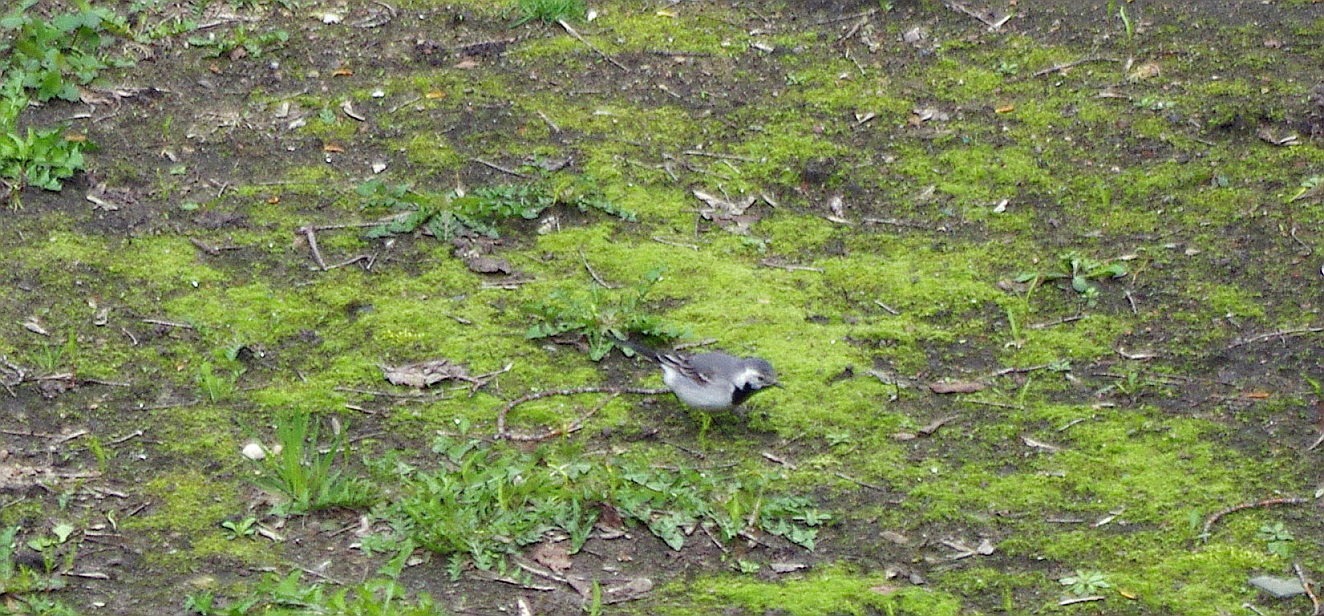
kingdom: Animalia
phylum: Chordata
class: Aves
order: Passeriformes
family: Motacillidae
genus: Motacilla
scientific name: Motacilla alba
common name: White wagtail
